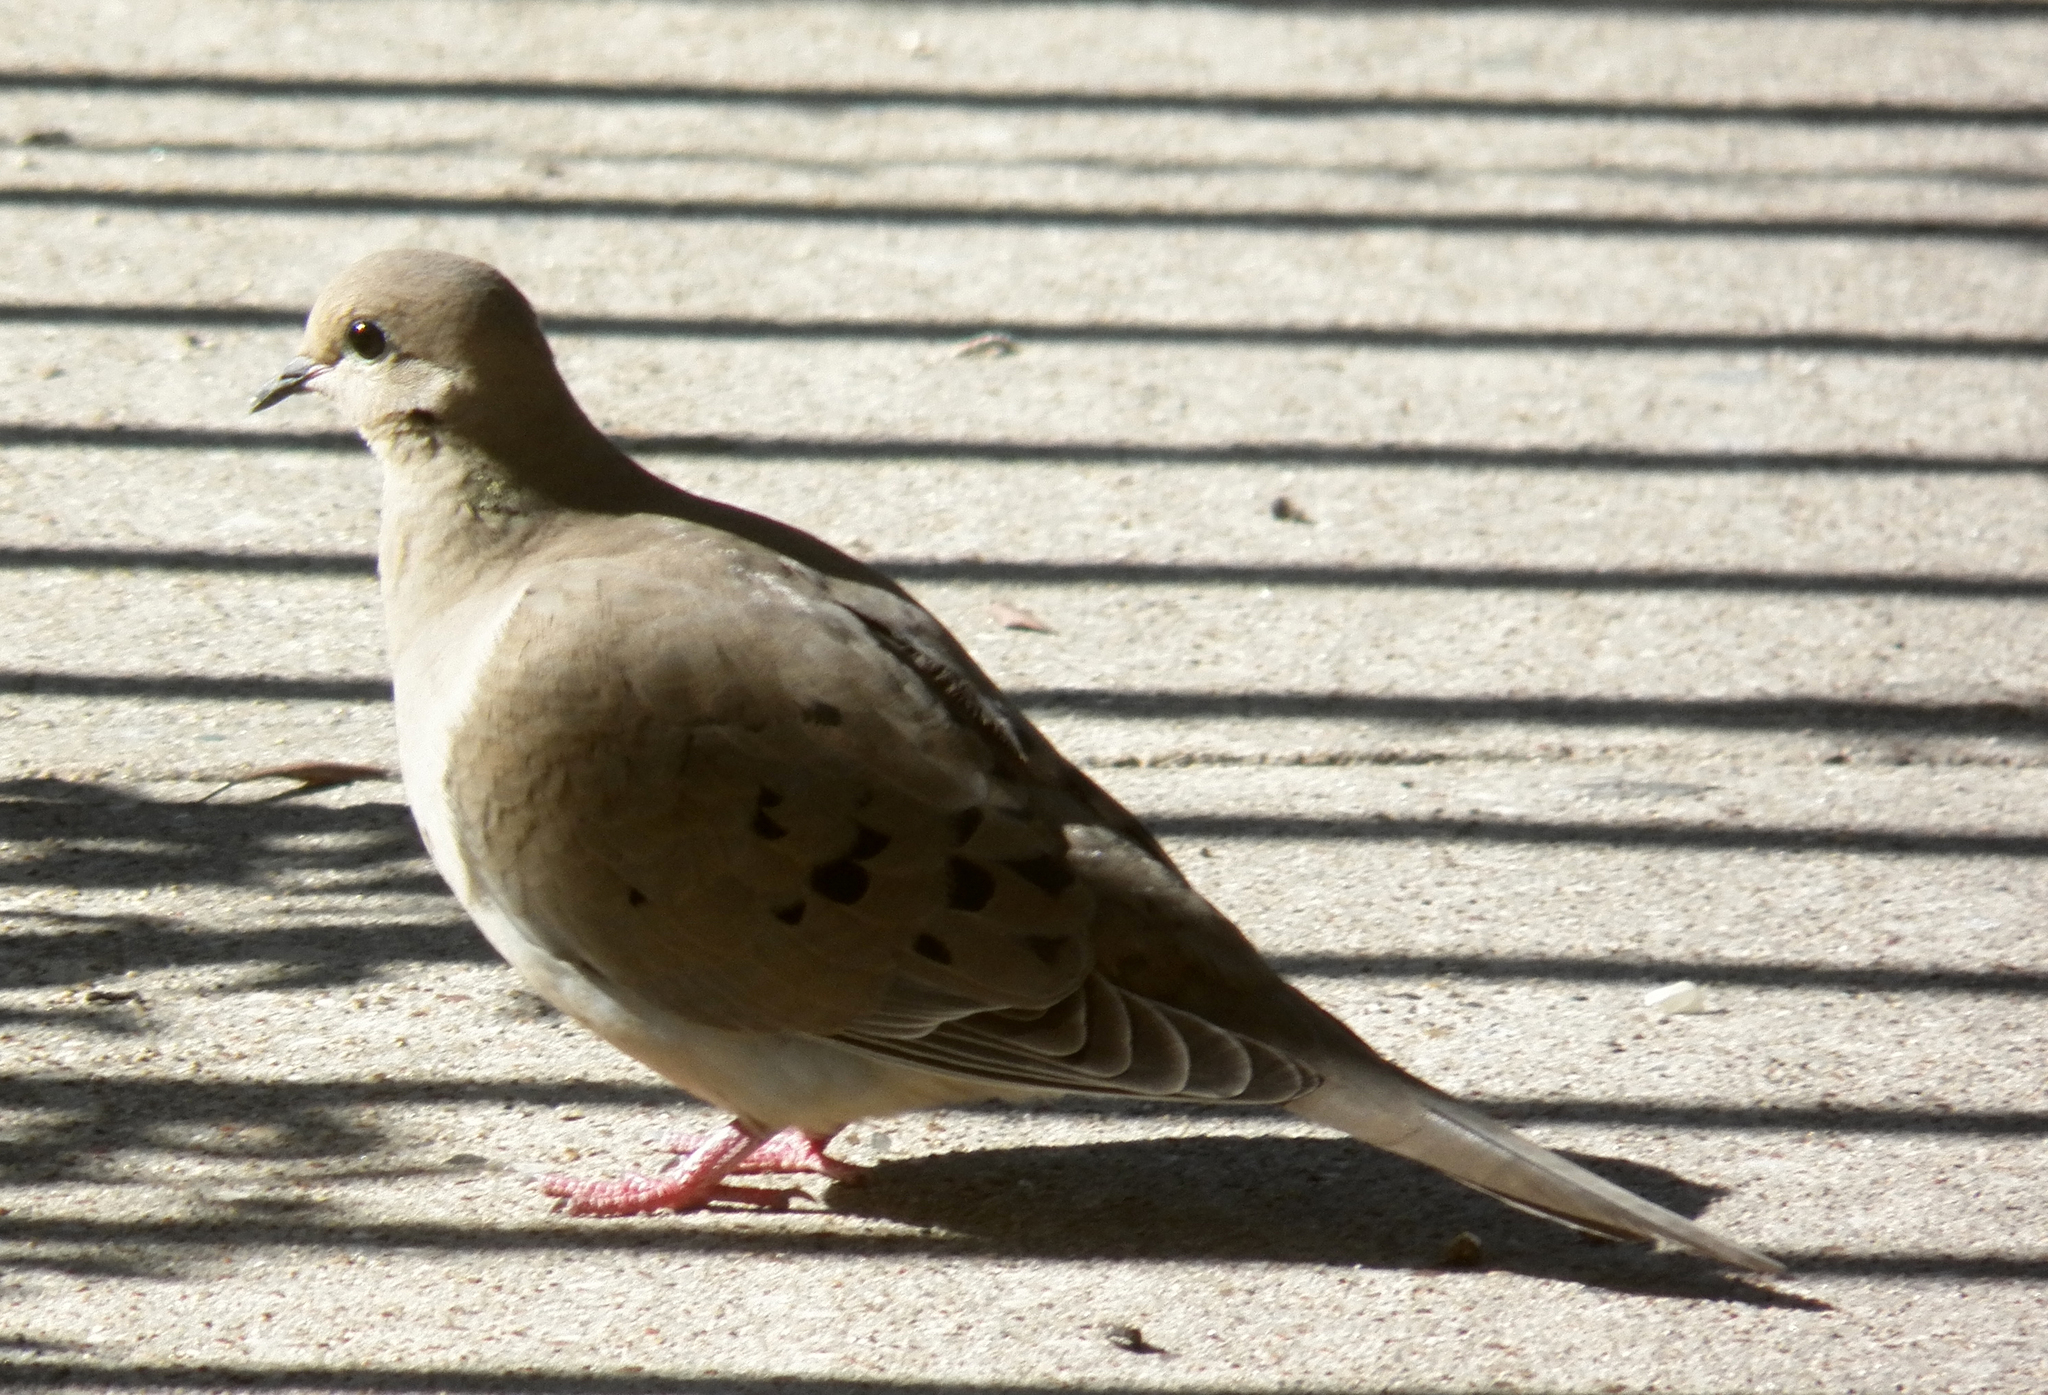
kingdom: Animalia
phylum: Chordata
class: Aves
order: Columbiformes
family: Columbidae
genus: Zenaida
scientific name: Zenaida macroura
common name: Mourning dove
